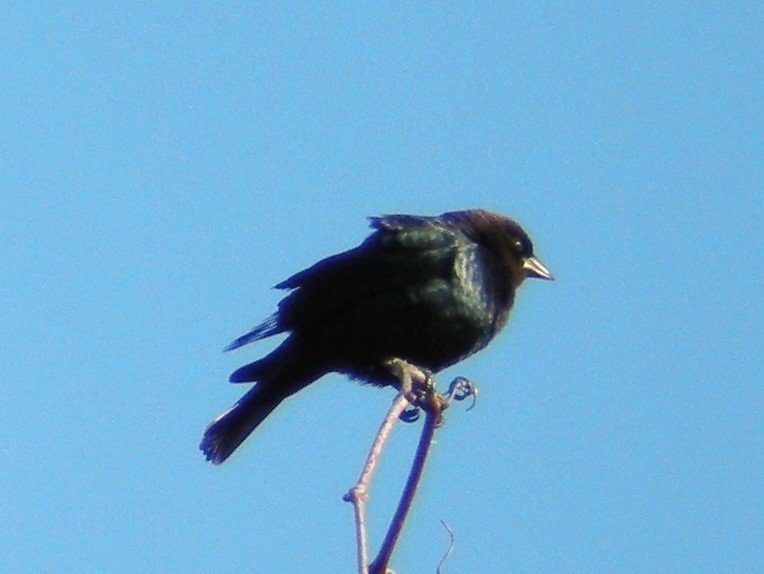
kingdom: Animalia
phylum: Chordata
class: Aves
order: Passeriformes
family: Icteridae
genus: Molothrus
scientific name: Molothrus ater
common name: Brown-headed cowbird
